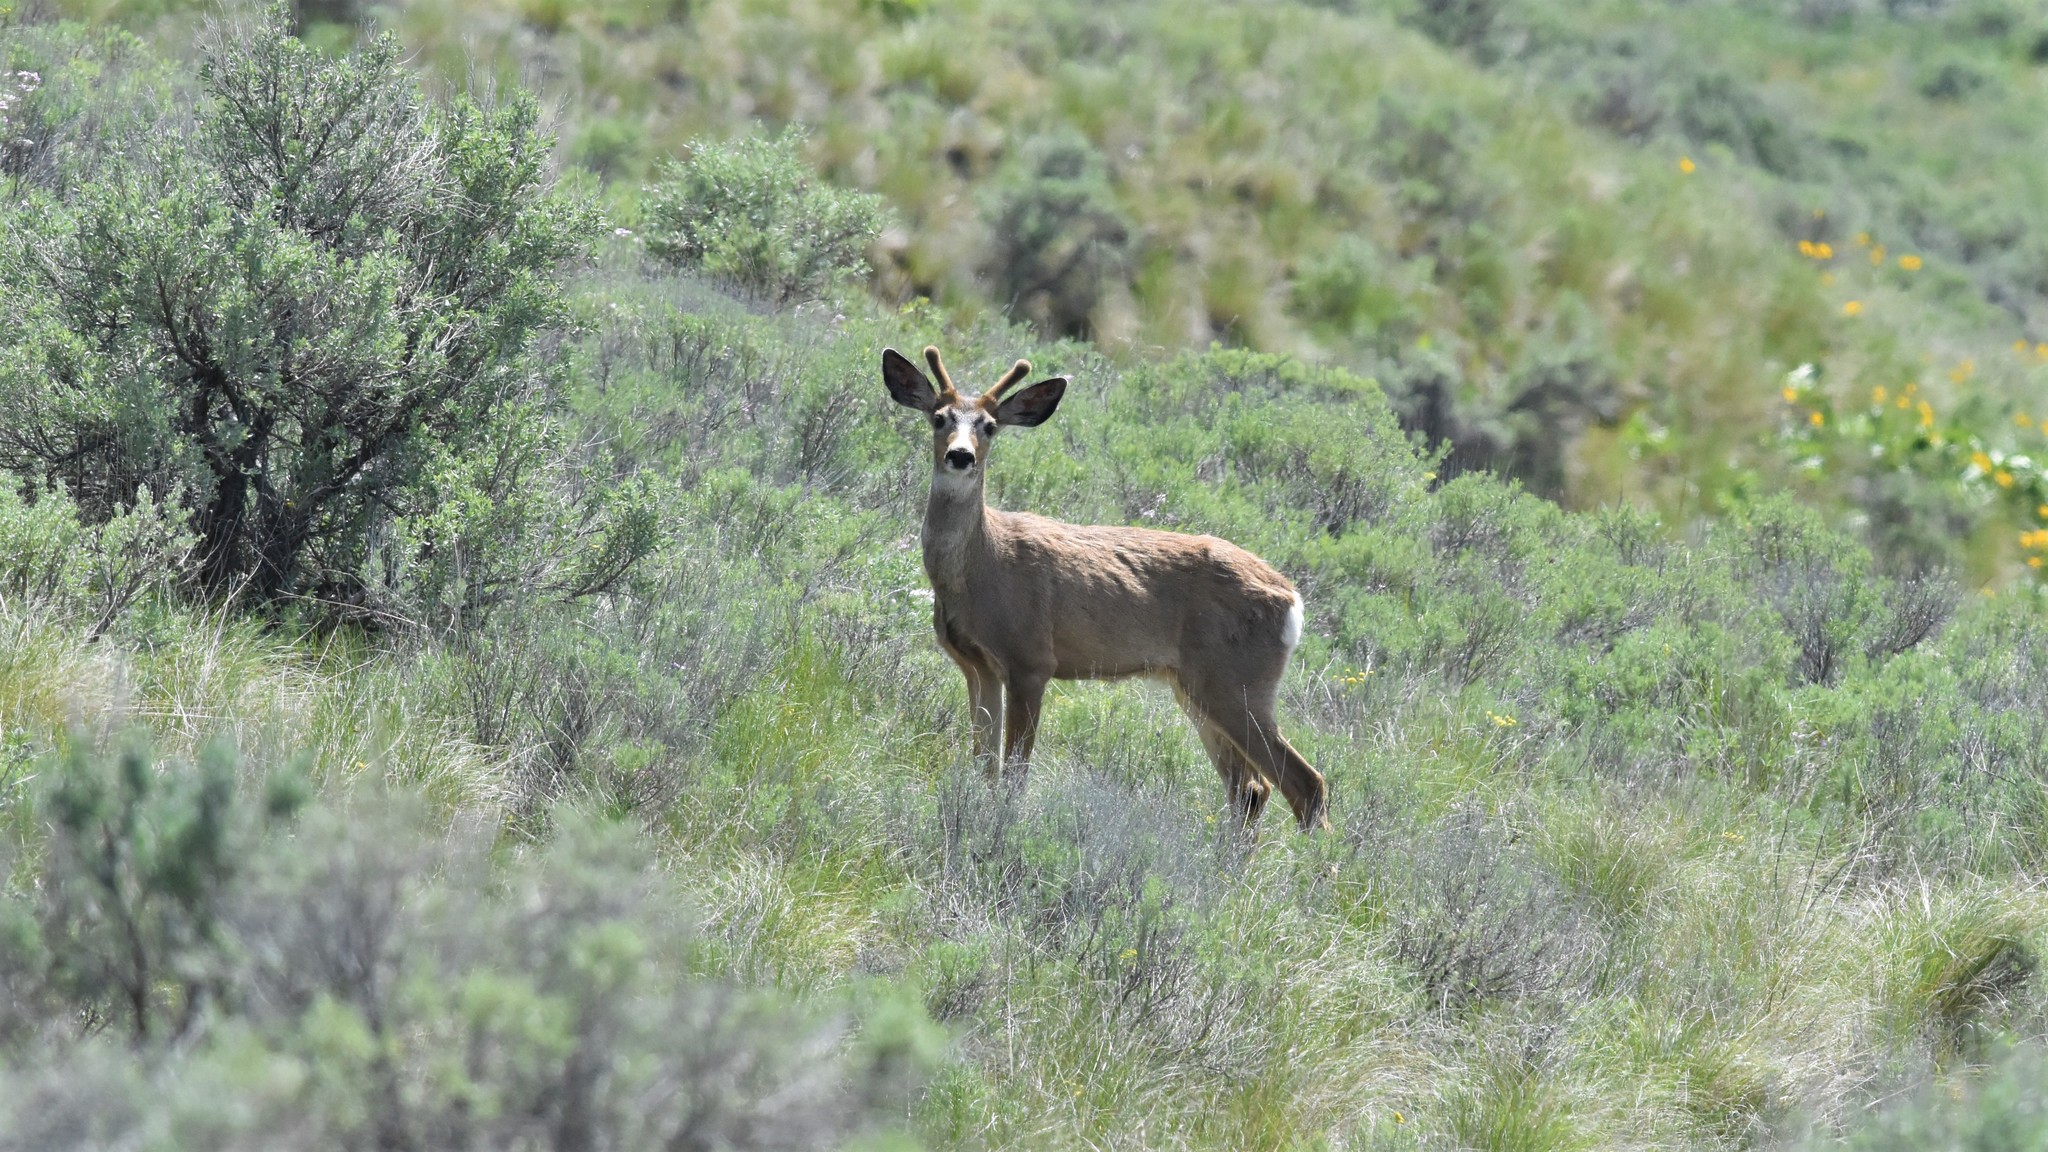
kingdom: Animalia
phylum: Chordata
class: Mammalia
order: Artiodactyla
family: Cervidae
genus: Odocoileus
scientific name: Odocoileus hemionus
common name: Mule deer
